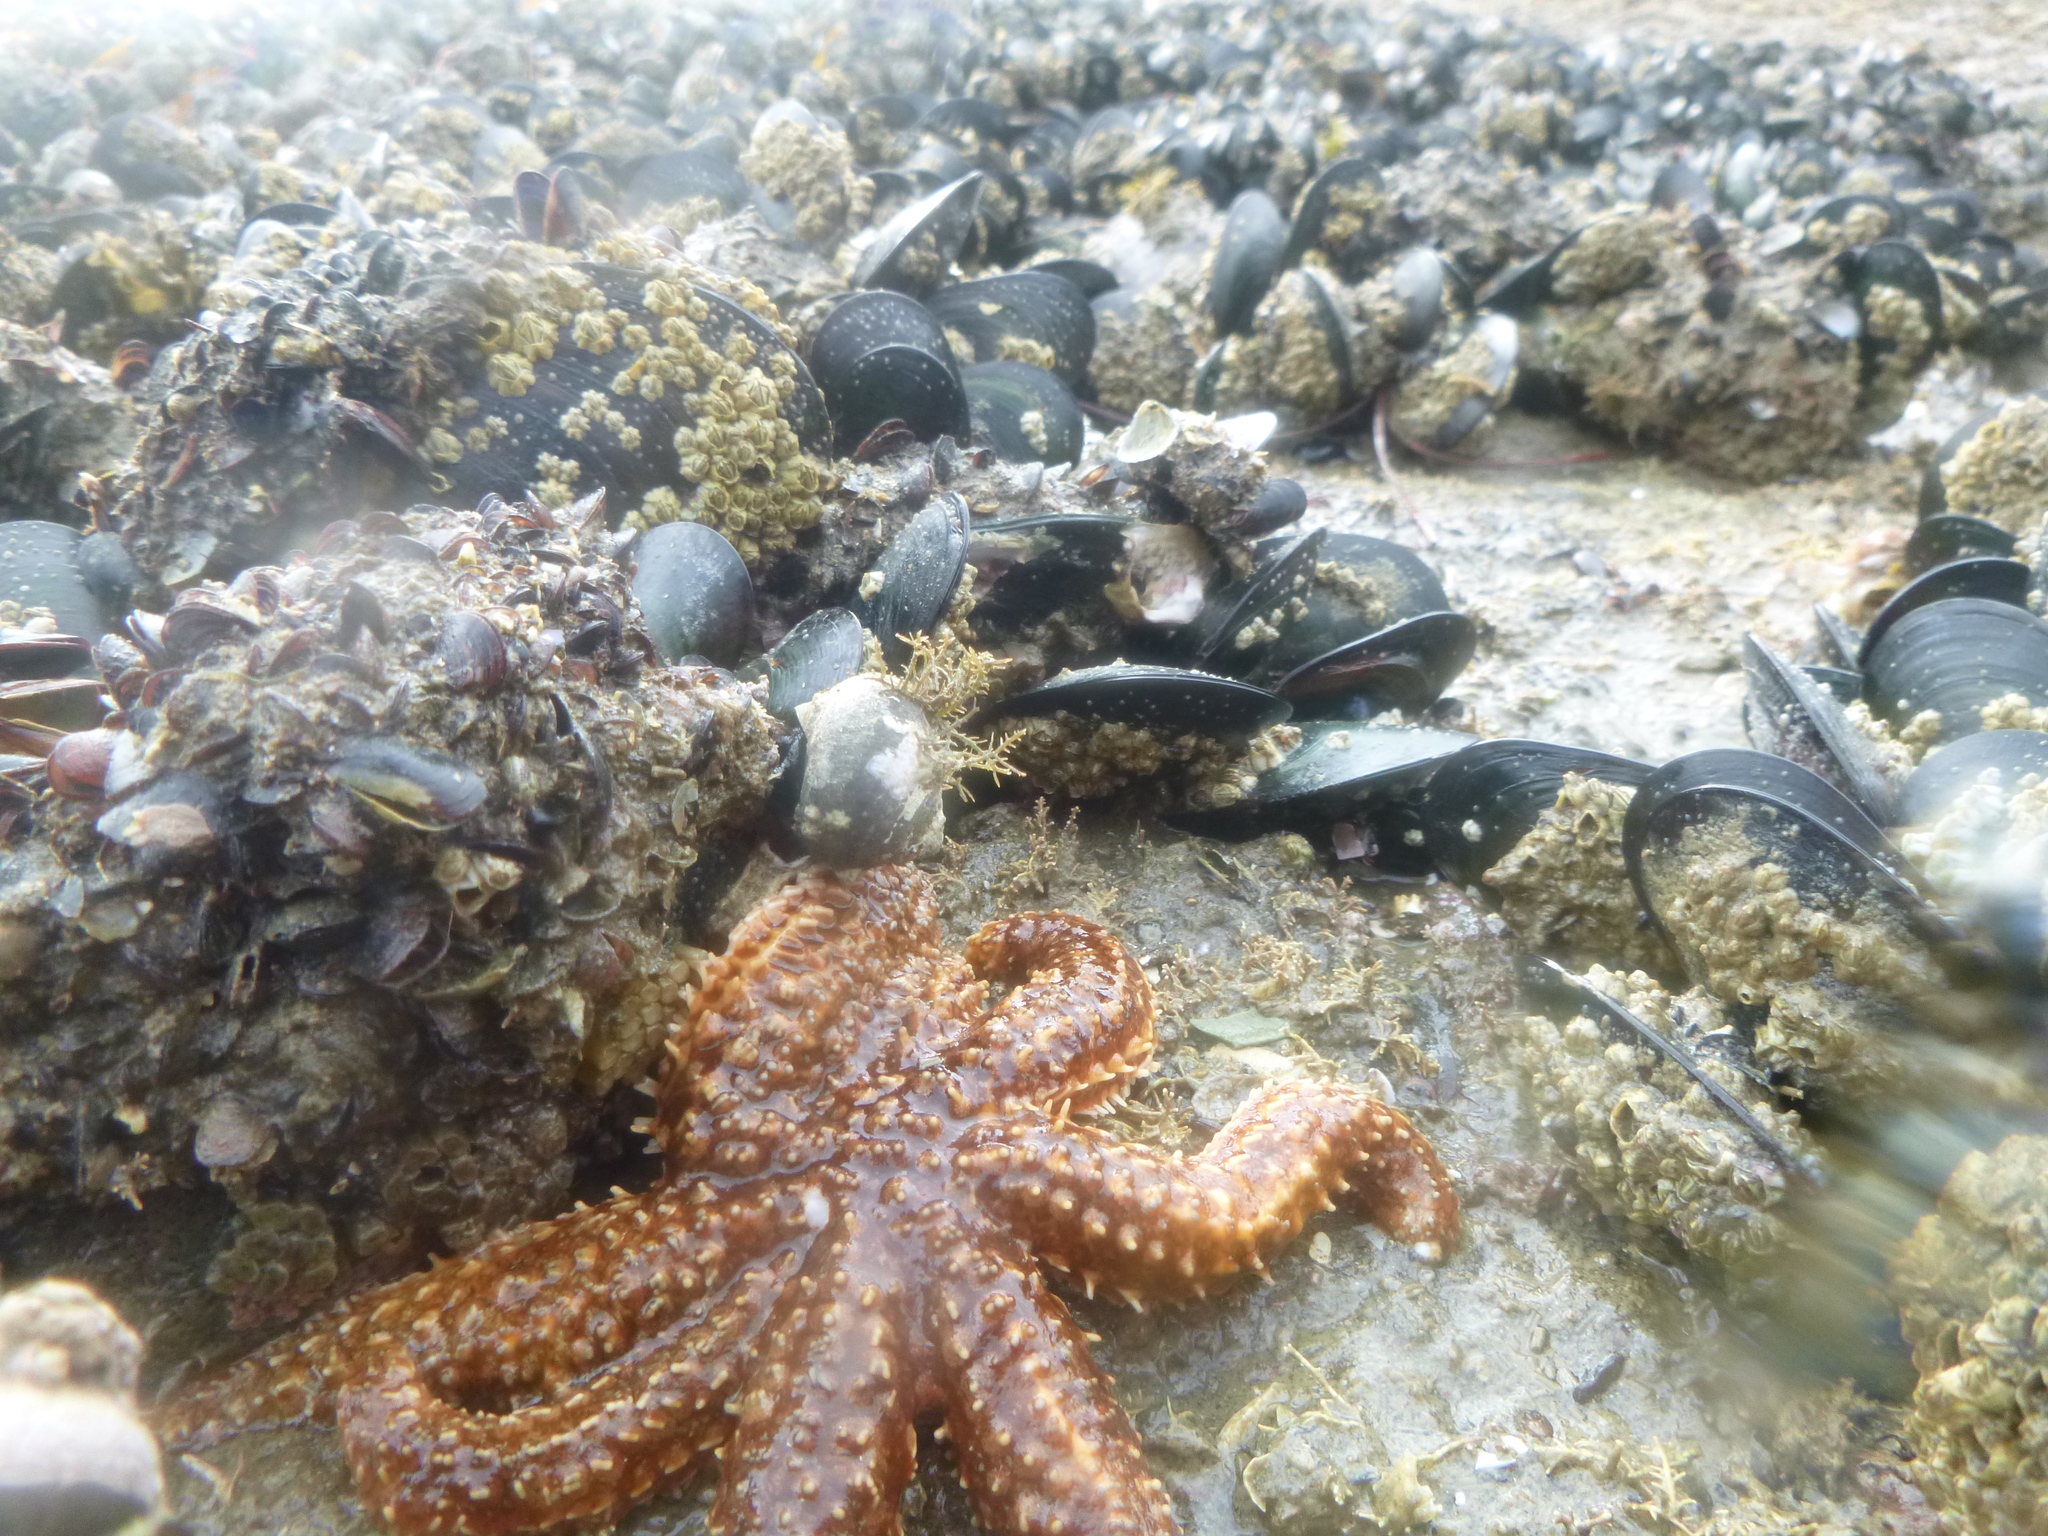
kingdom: Animalia
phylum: Mollusca
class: Bivalvia
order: Mytilida
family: Mytilidae
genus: Perna
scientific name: Perna canaliculus
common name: New zealand greenshelltm
